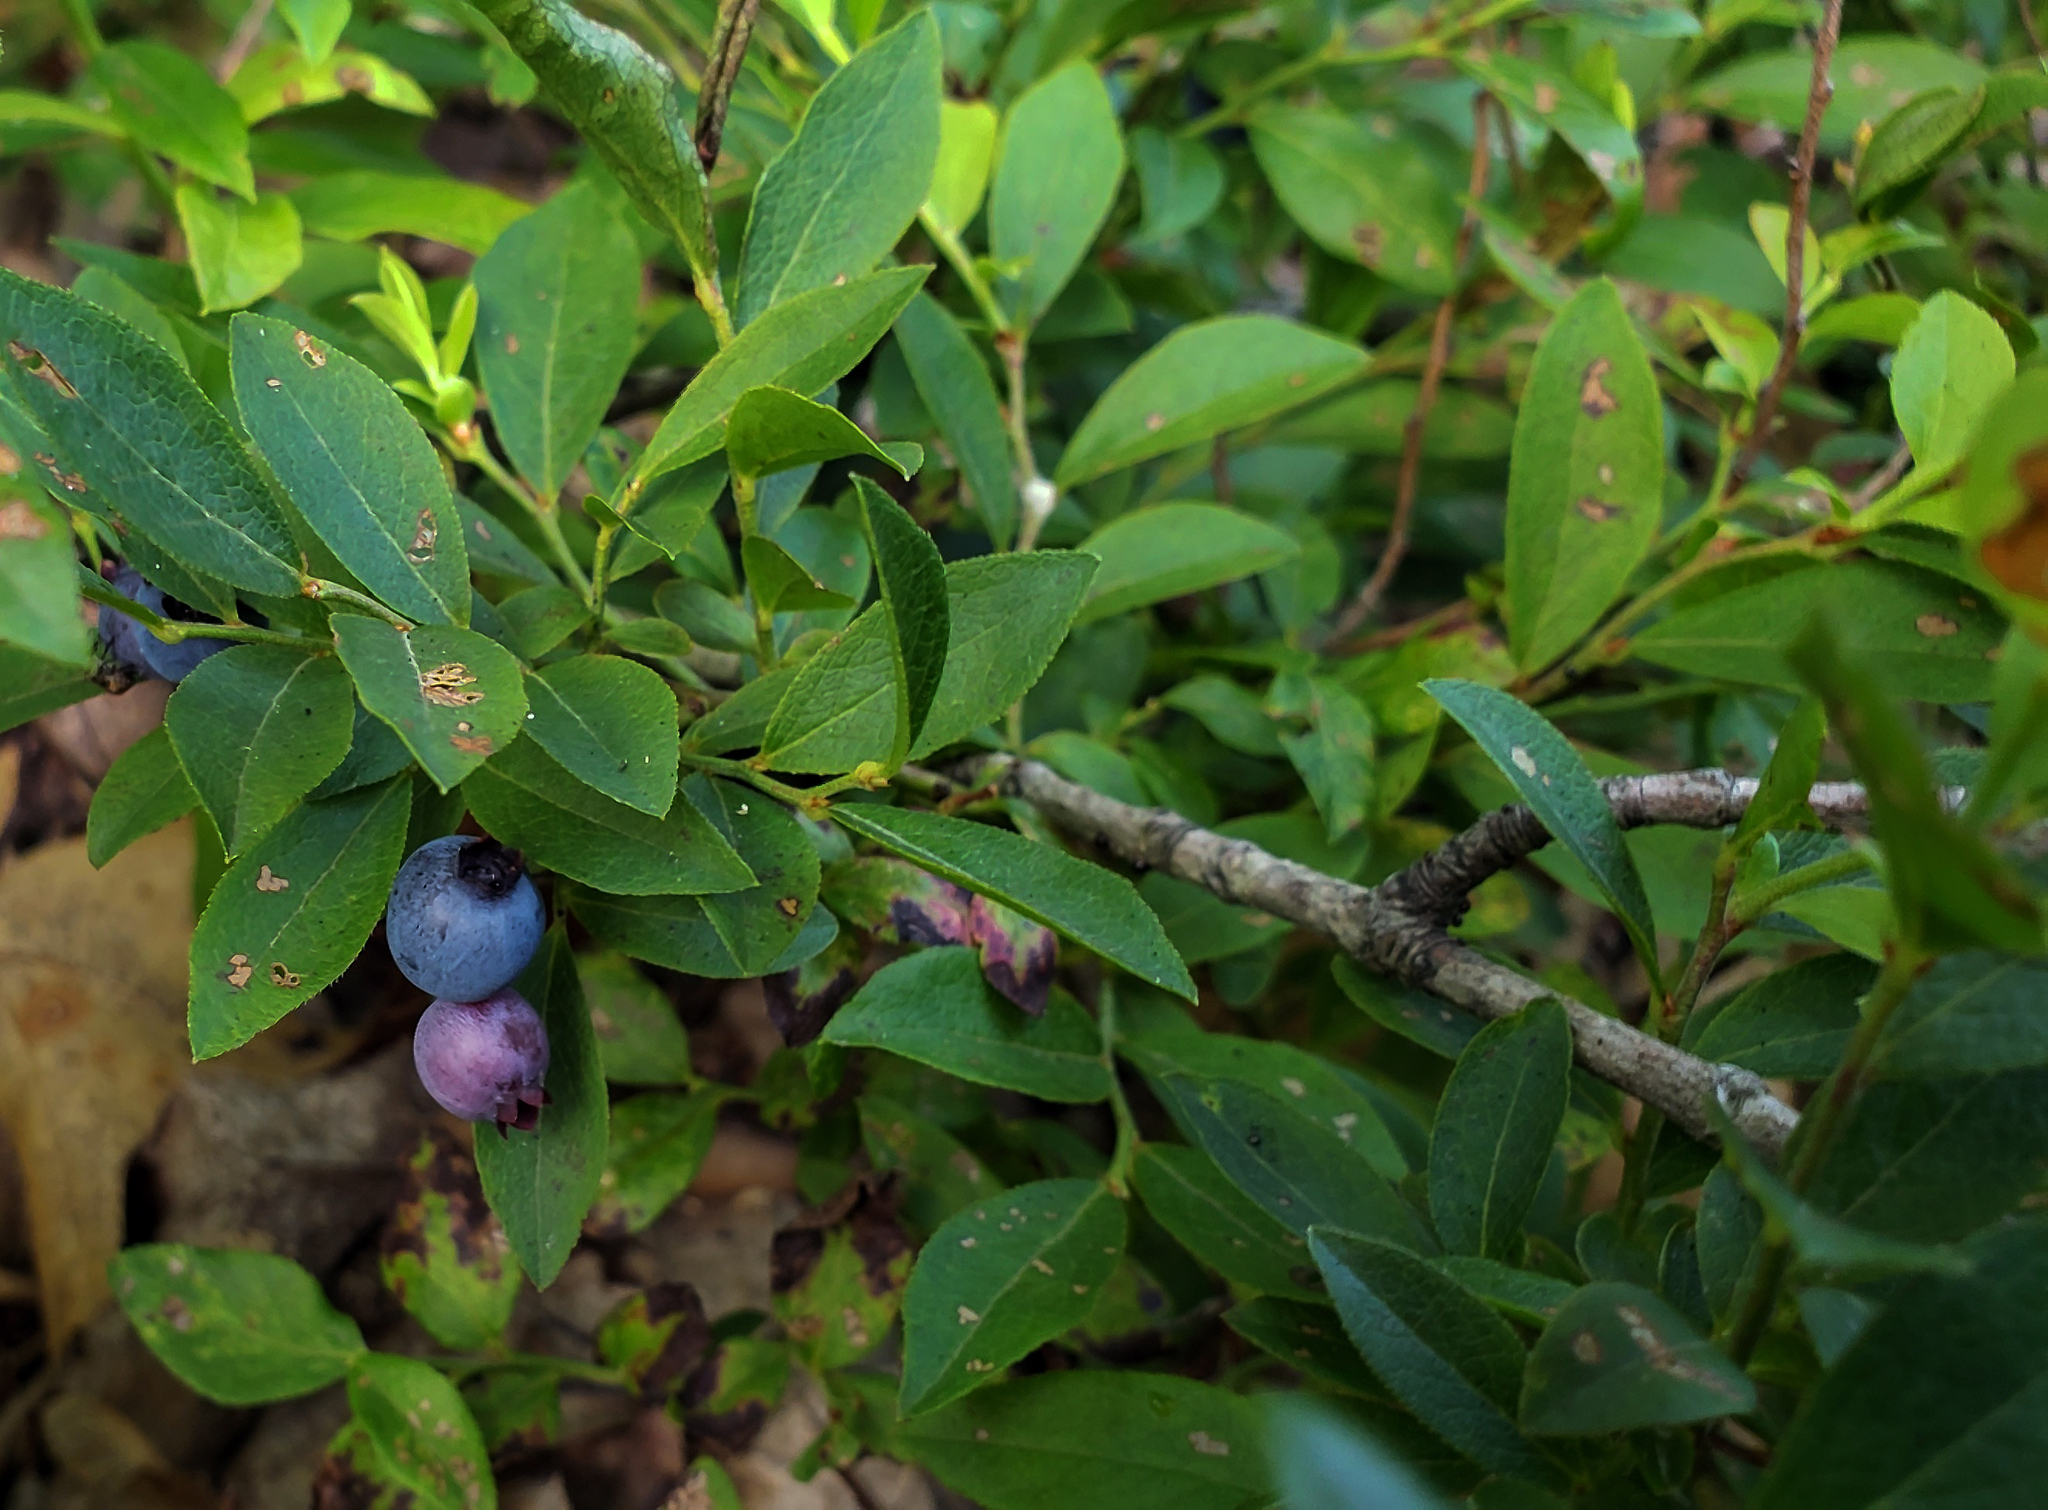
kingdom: Plantae
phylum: Tracheophyta
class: Magnoliopsida
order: Ericales
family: Ericaceae
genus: Vaccinium
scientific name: Vaccinium angustifolium
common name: Early lowbush blueberry
